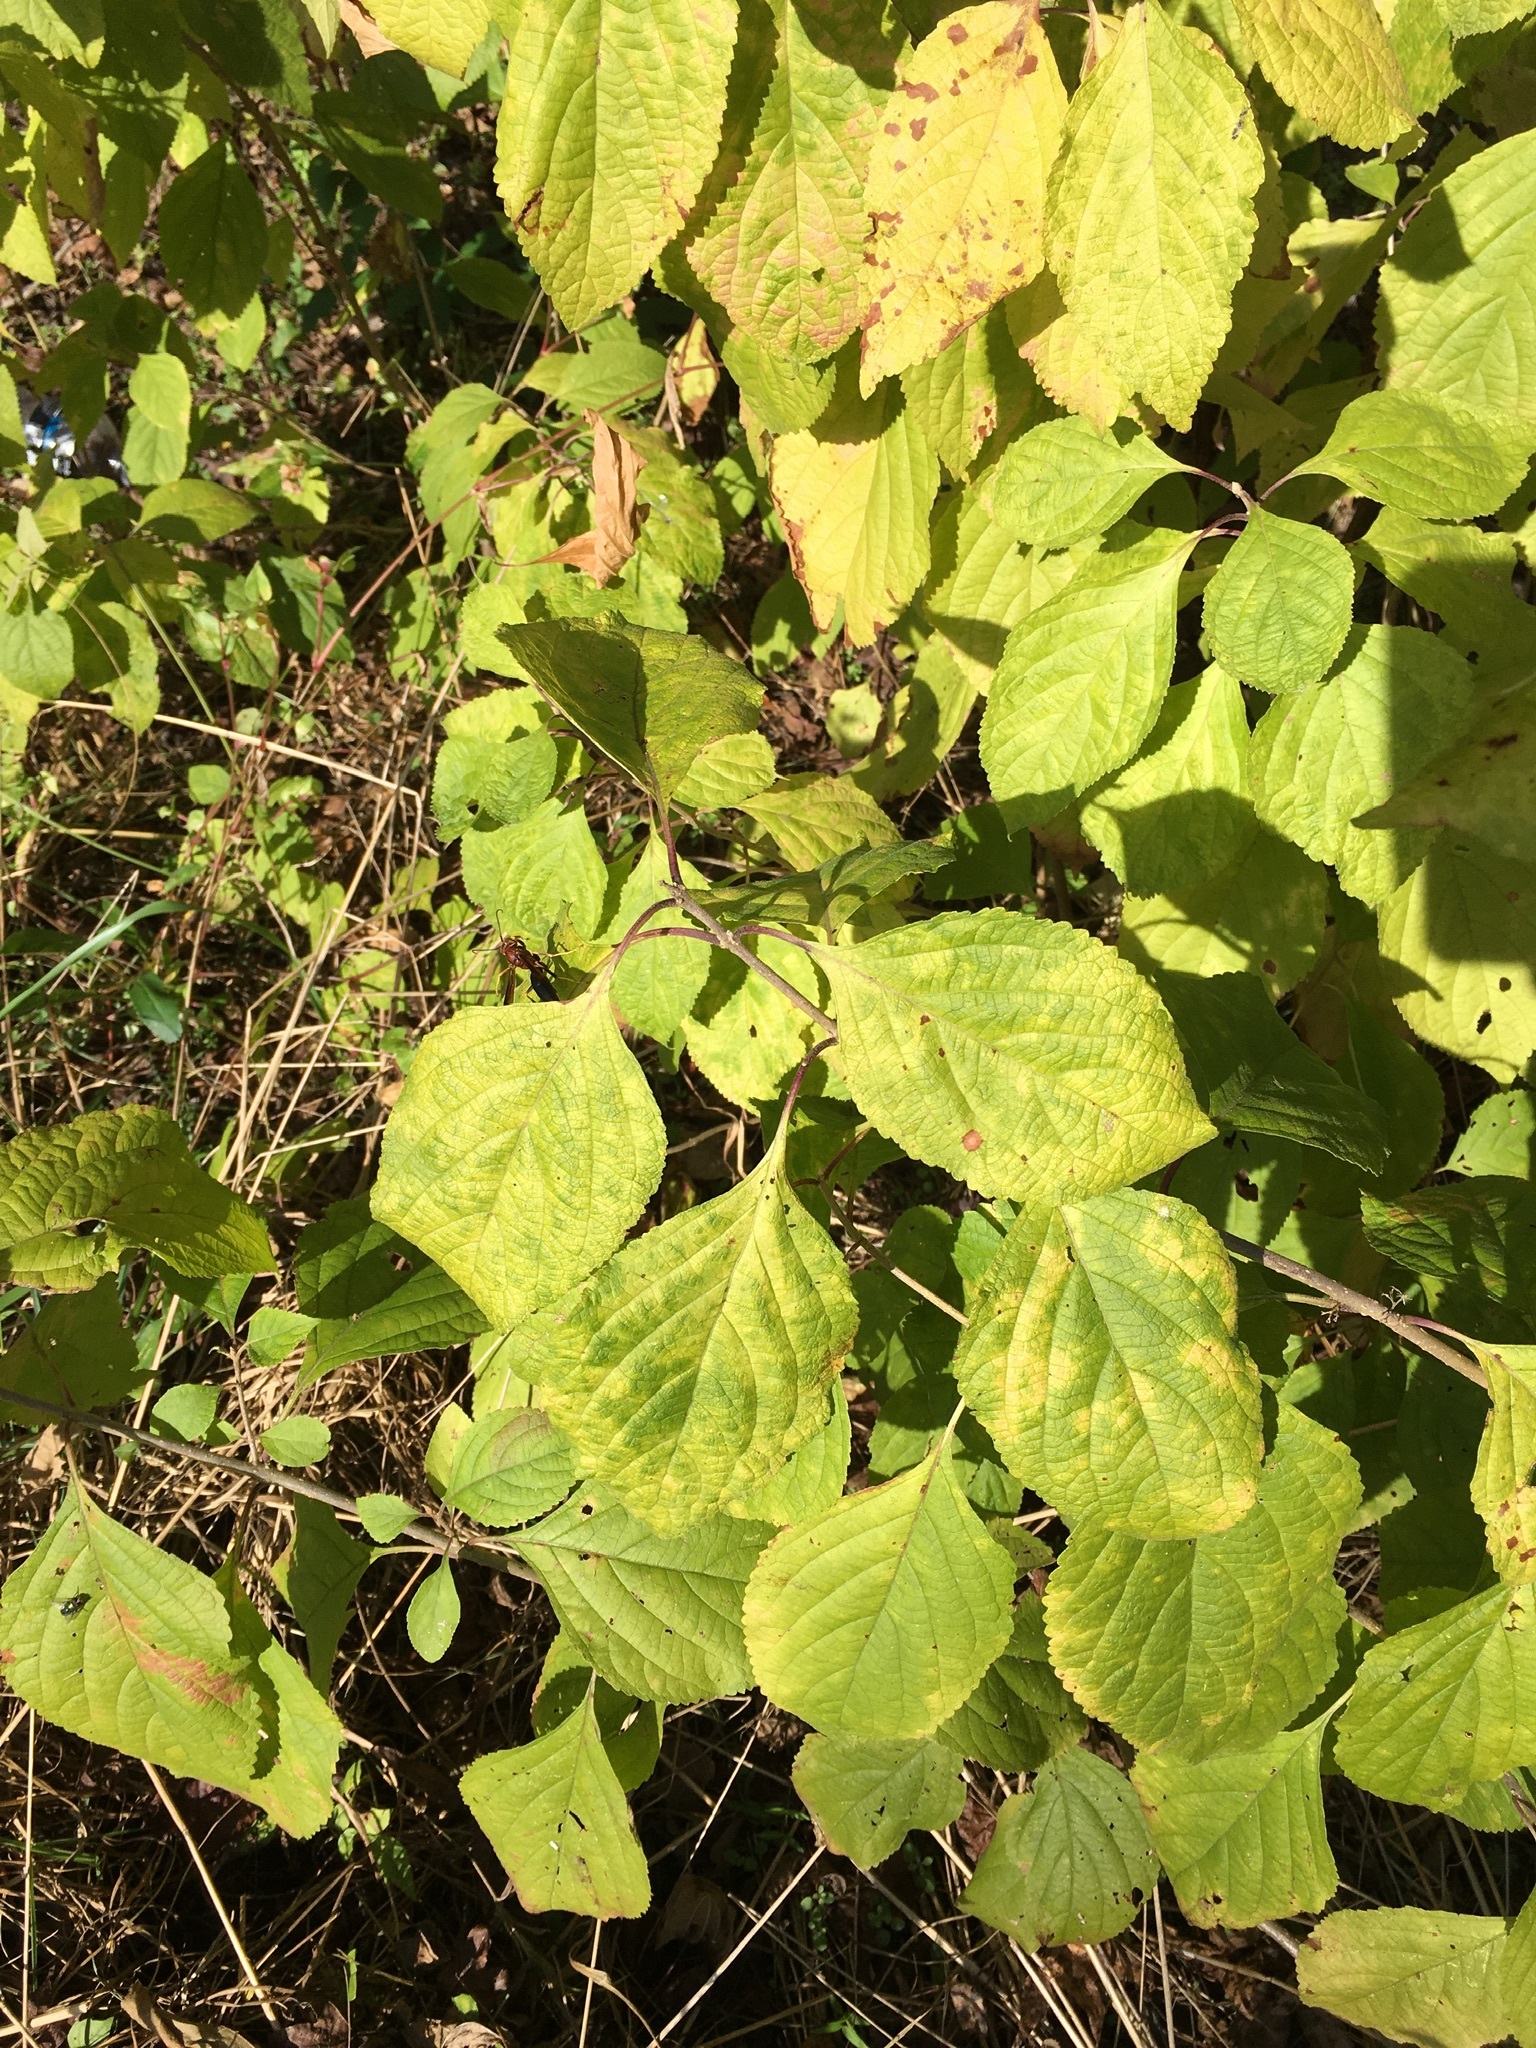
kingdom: Plantae
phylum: Tracheophyta
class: Magnoliopsida
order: Lamiales
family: Lamiaceae
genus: Callicarpa
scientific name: Callicarpa americana
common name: American beautyberry
